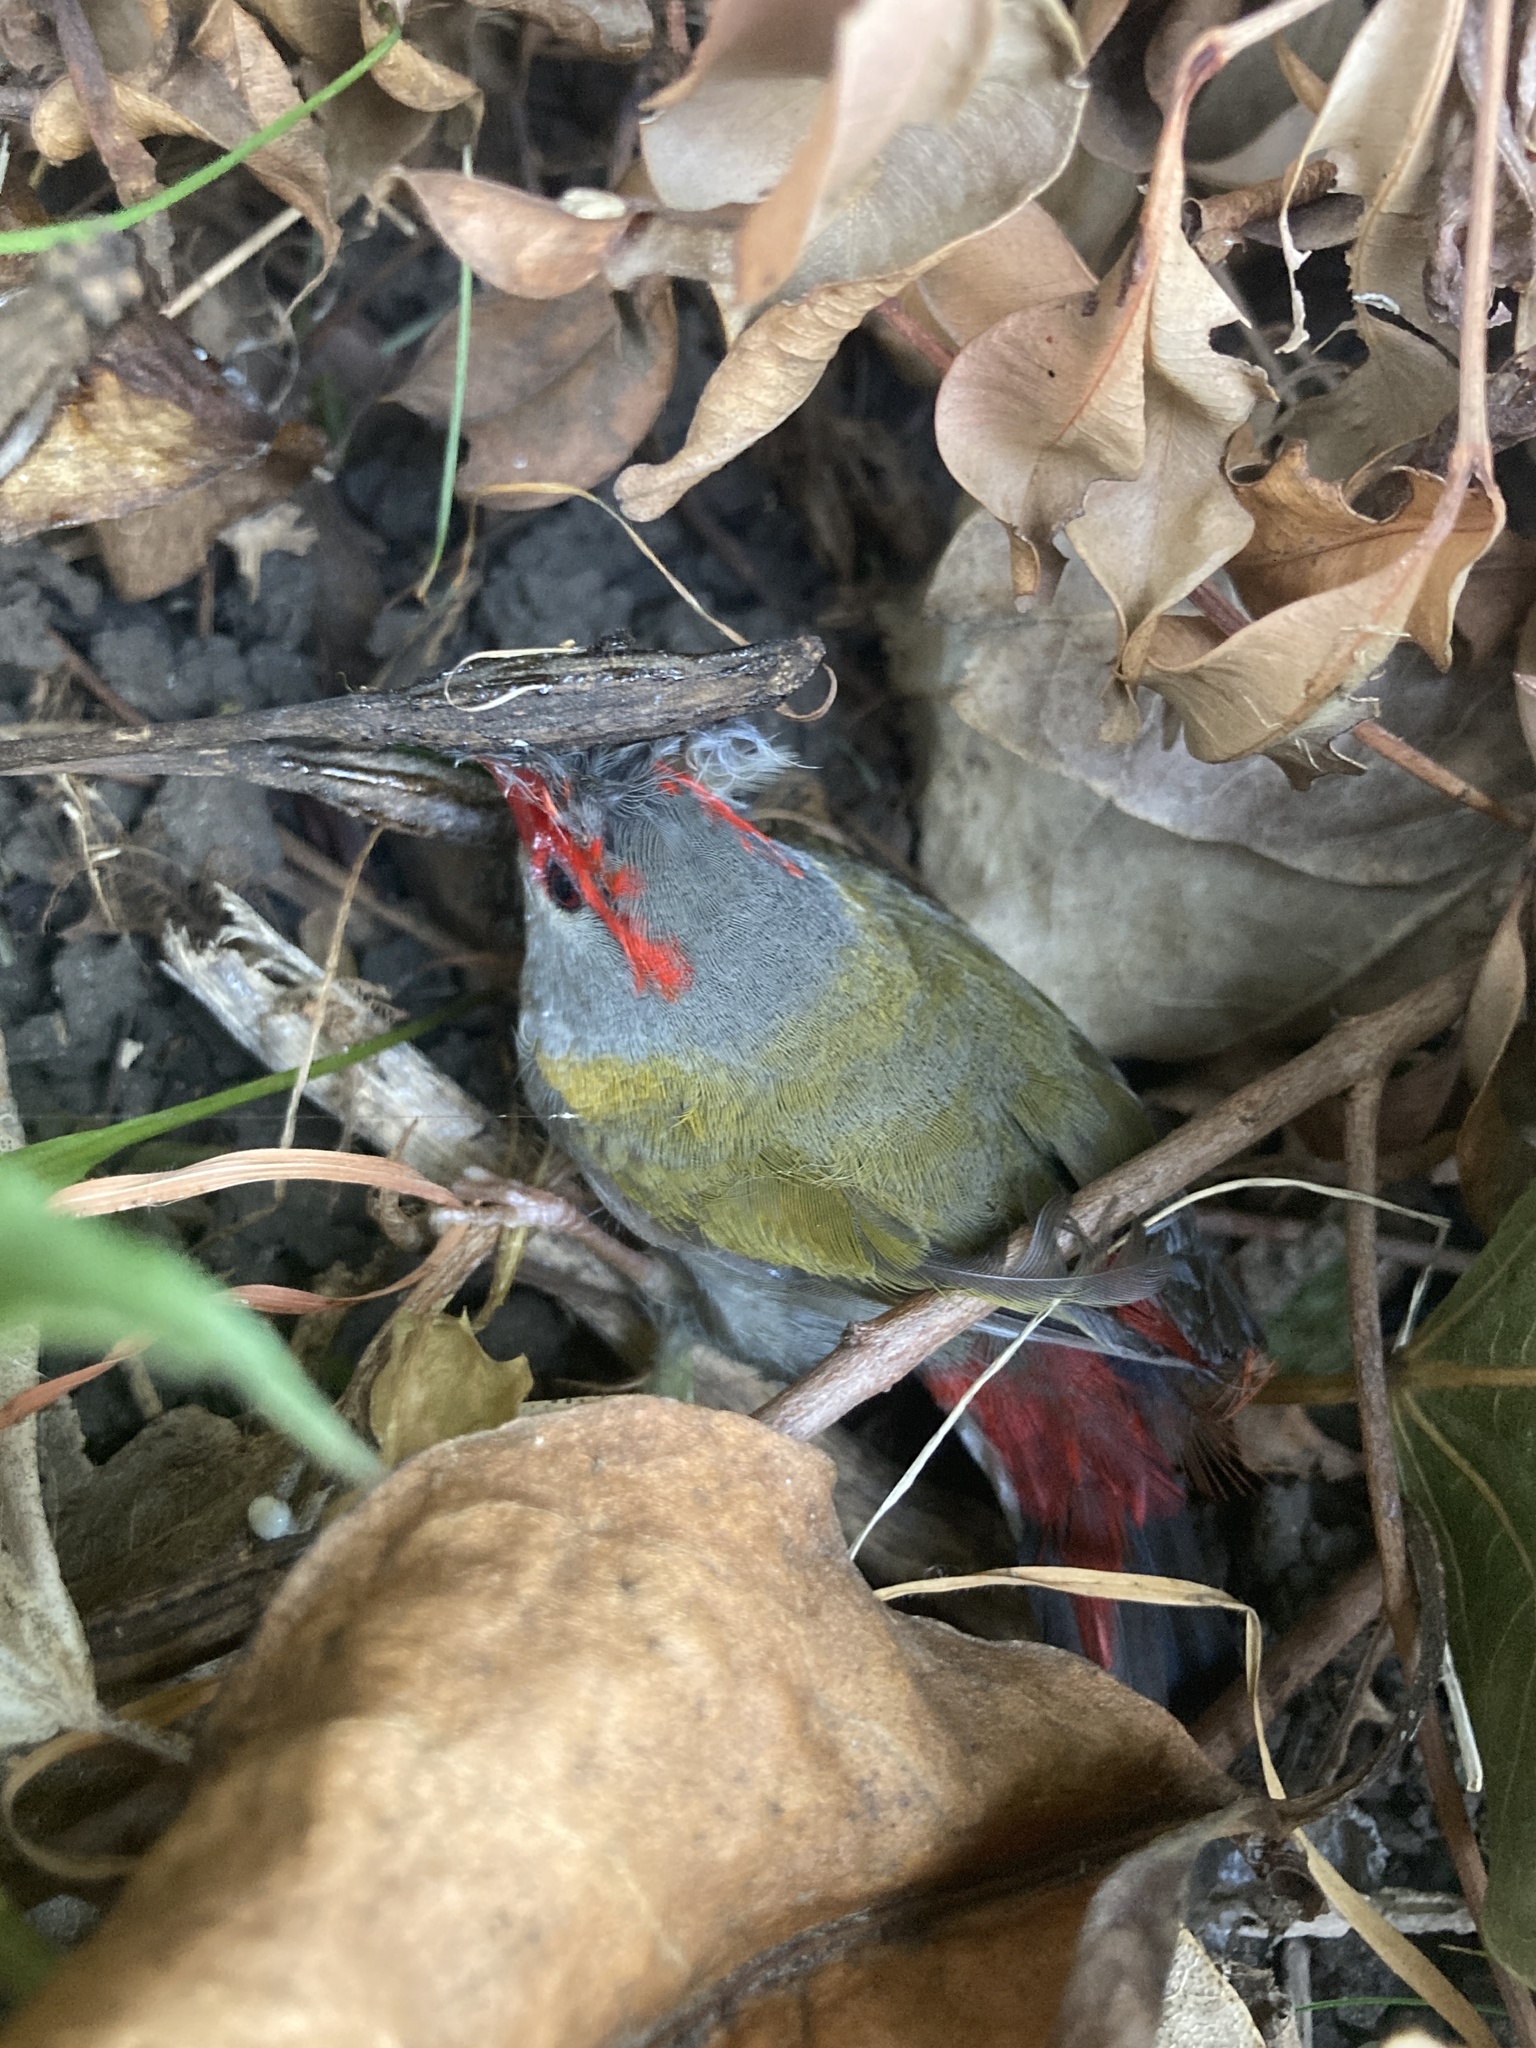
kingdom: Animalia
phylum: Chordata
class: Aves
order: Passeriformes
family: Estrildidae
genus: Neochmia
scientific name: Neochmia temporalis
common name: Red-browed finch
